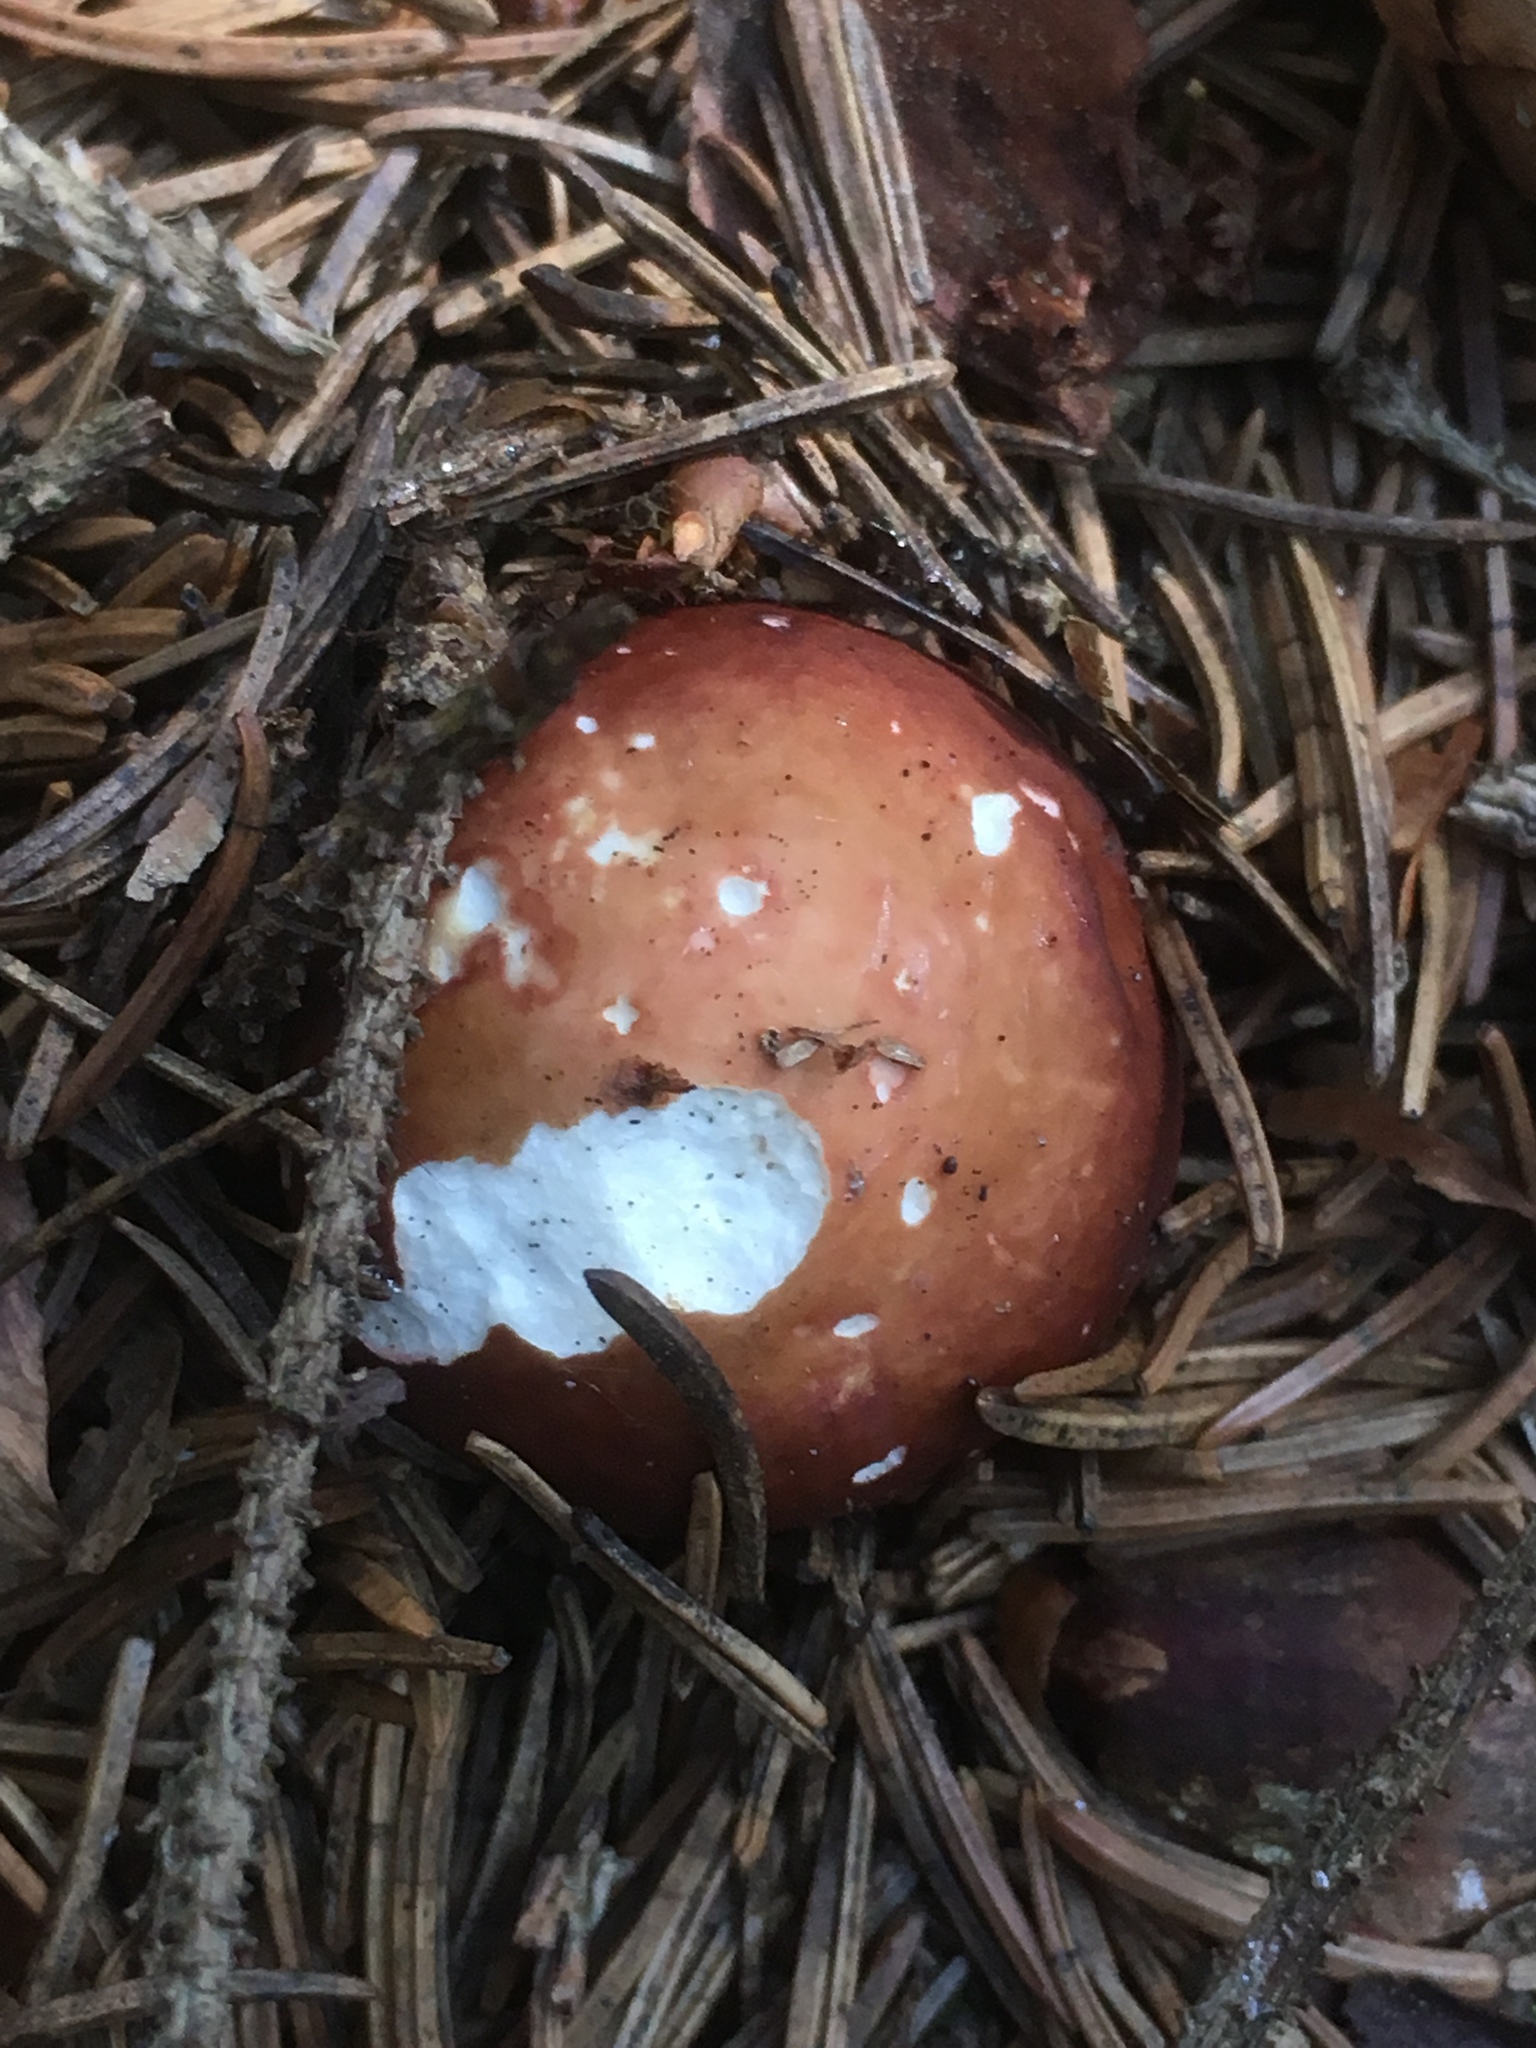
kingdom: Fungi
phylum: Basidiomycota
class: Agaricomycetes
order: Agaricales
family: Strophariaceae
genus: Stropharia
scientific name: Stropharia rugosoannulata
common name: Wine roundhead
